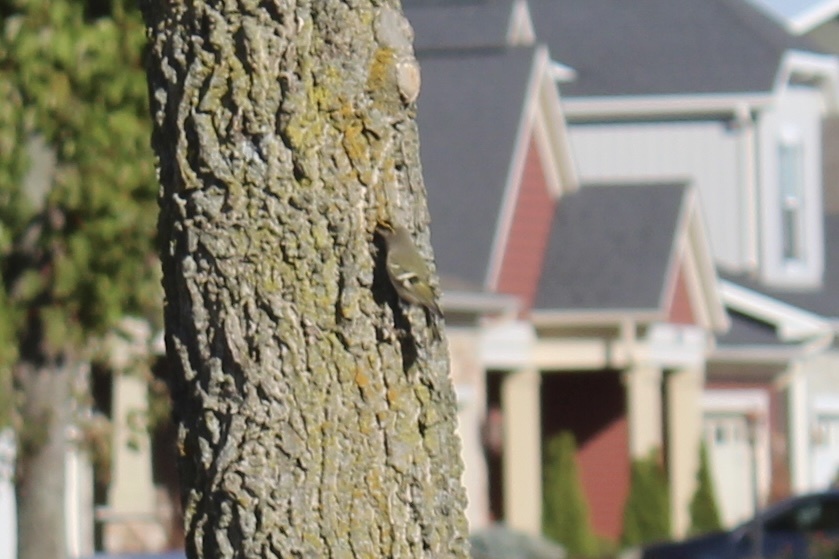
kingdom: Animalia
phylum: Chordata
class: Aves
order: Passeriformes
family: Regulidae
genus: Regulus
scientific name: Regulus satrapa
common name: Golden-crowned kinglet
